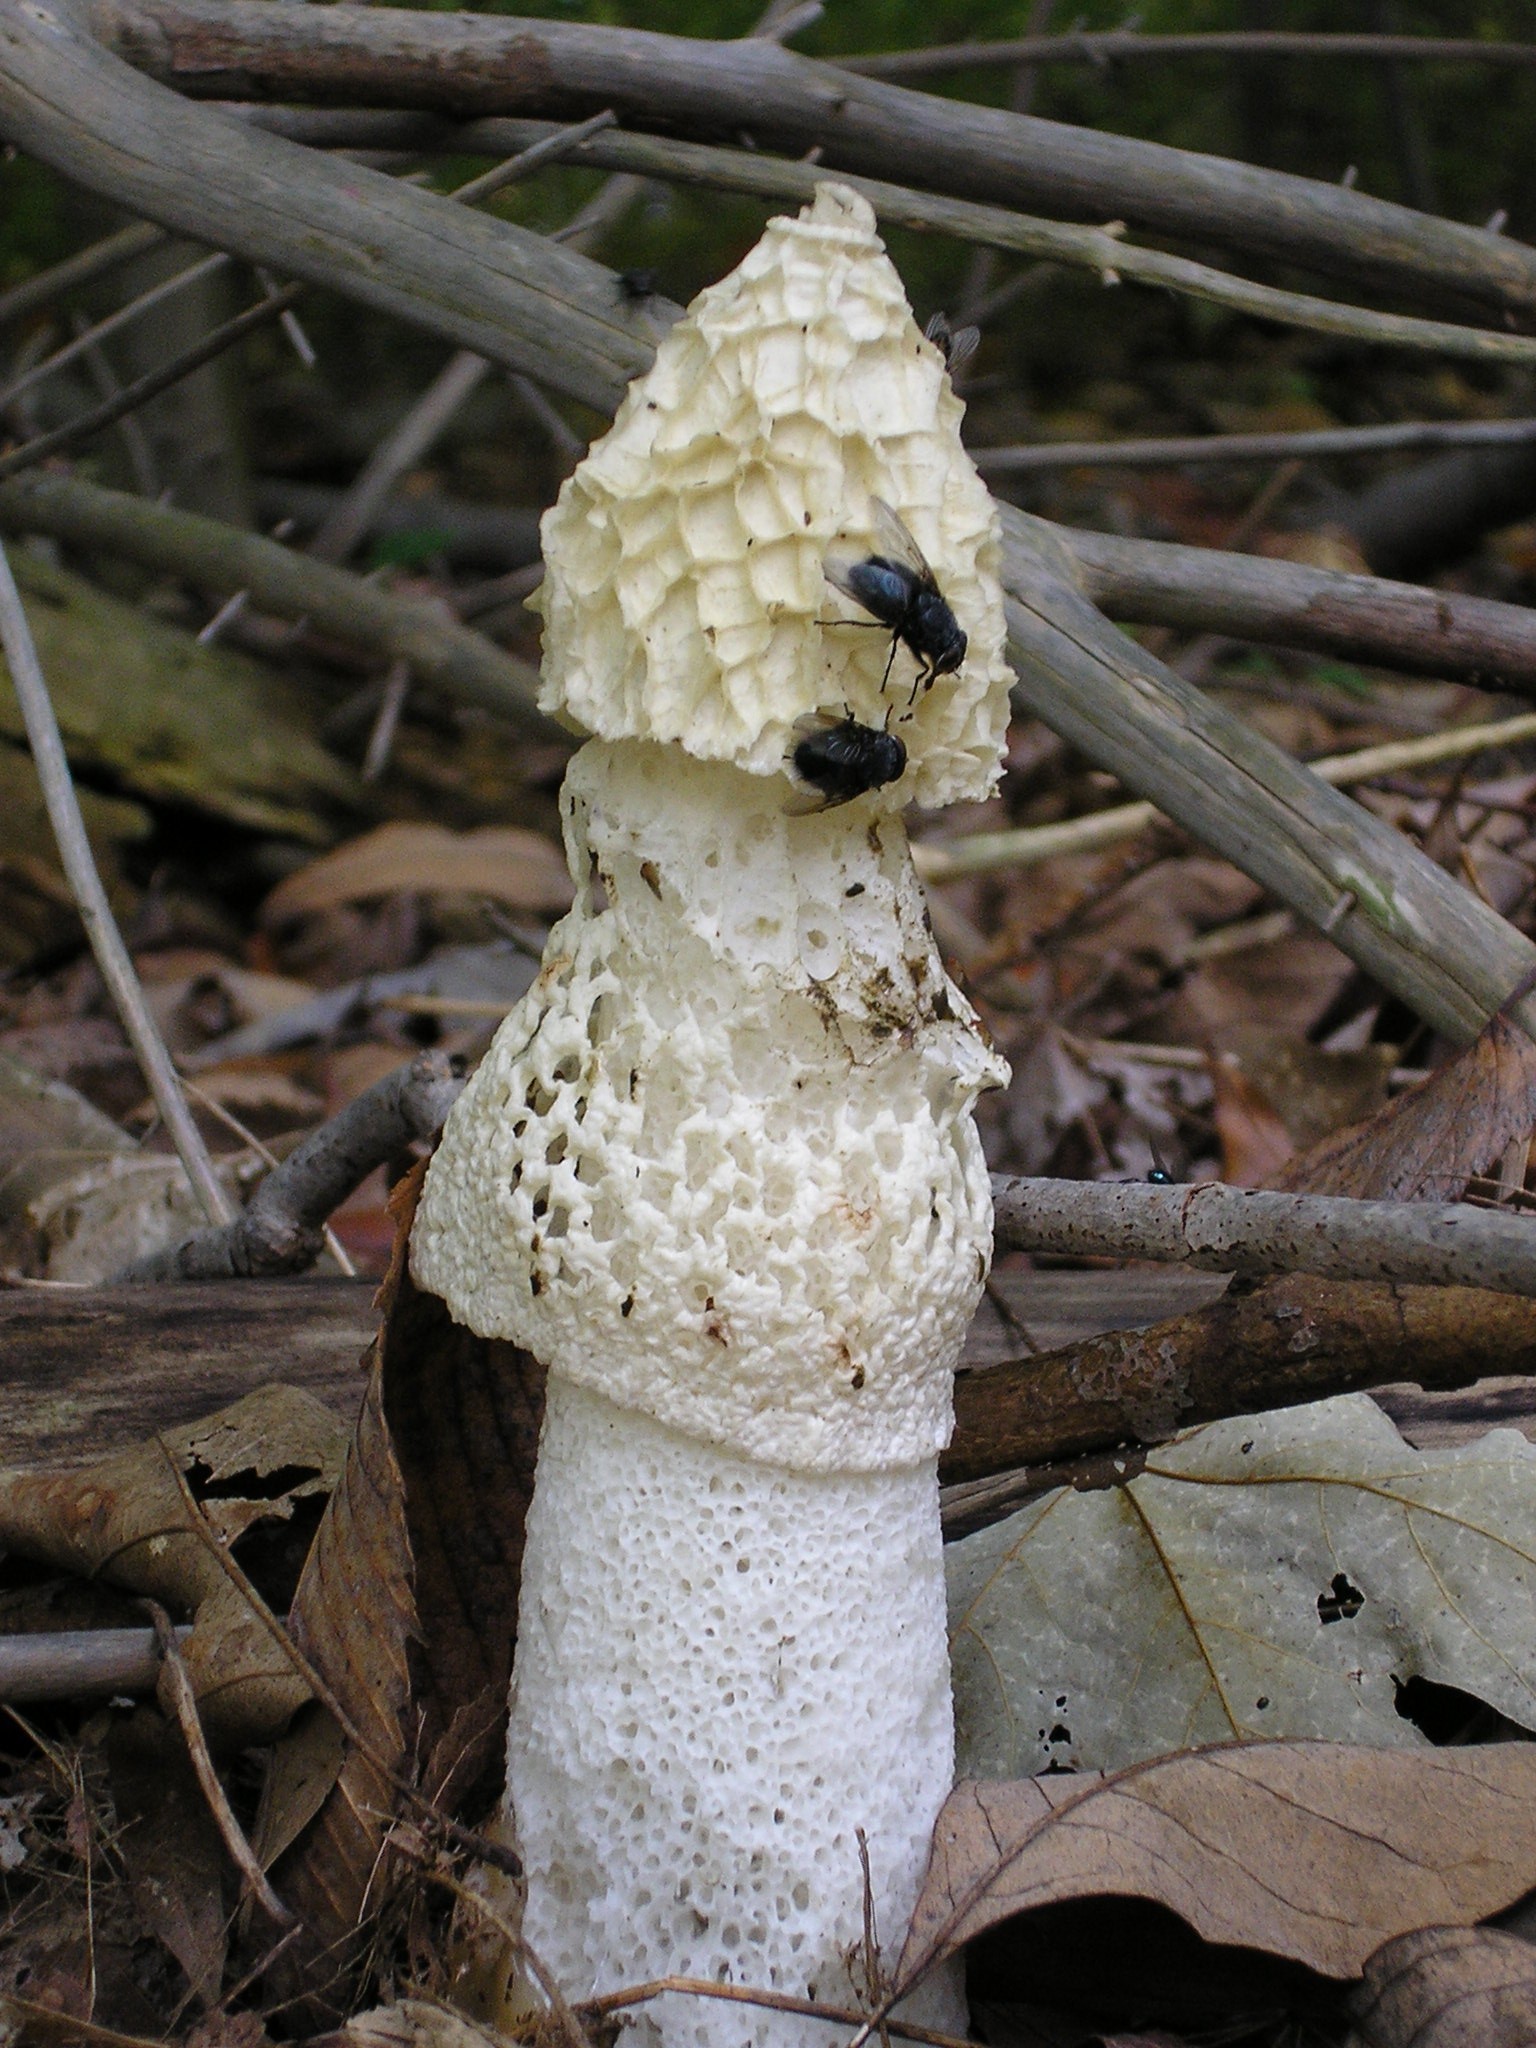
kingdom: Fungi
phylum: Basidiomycota
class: Agaricomycetes
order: Phallales
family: Phallaceae
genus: Phallus
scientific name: Phallus indusiatus
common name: Bridal veil stinkhorn
